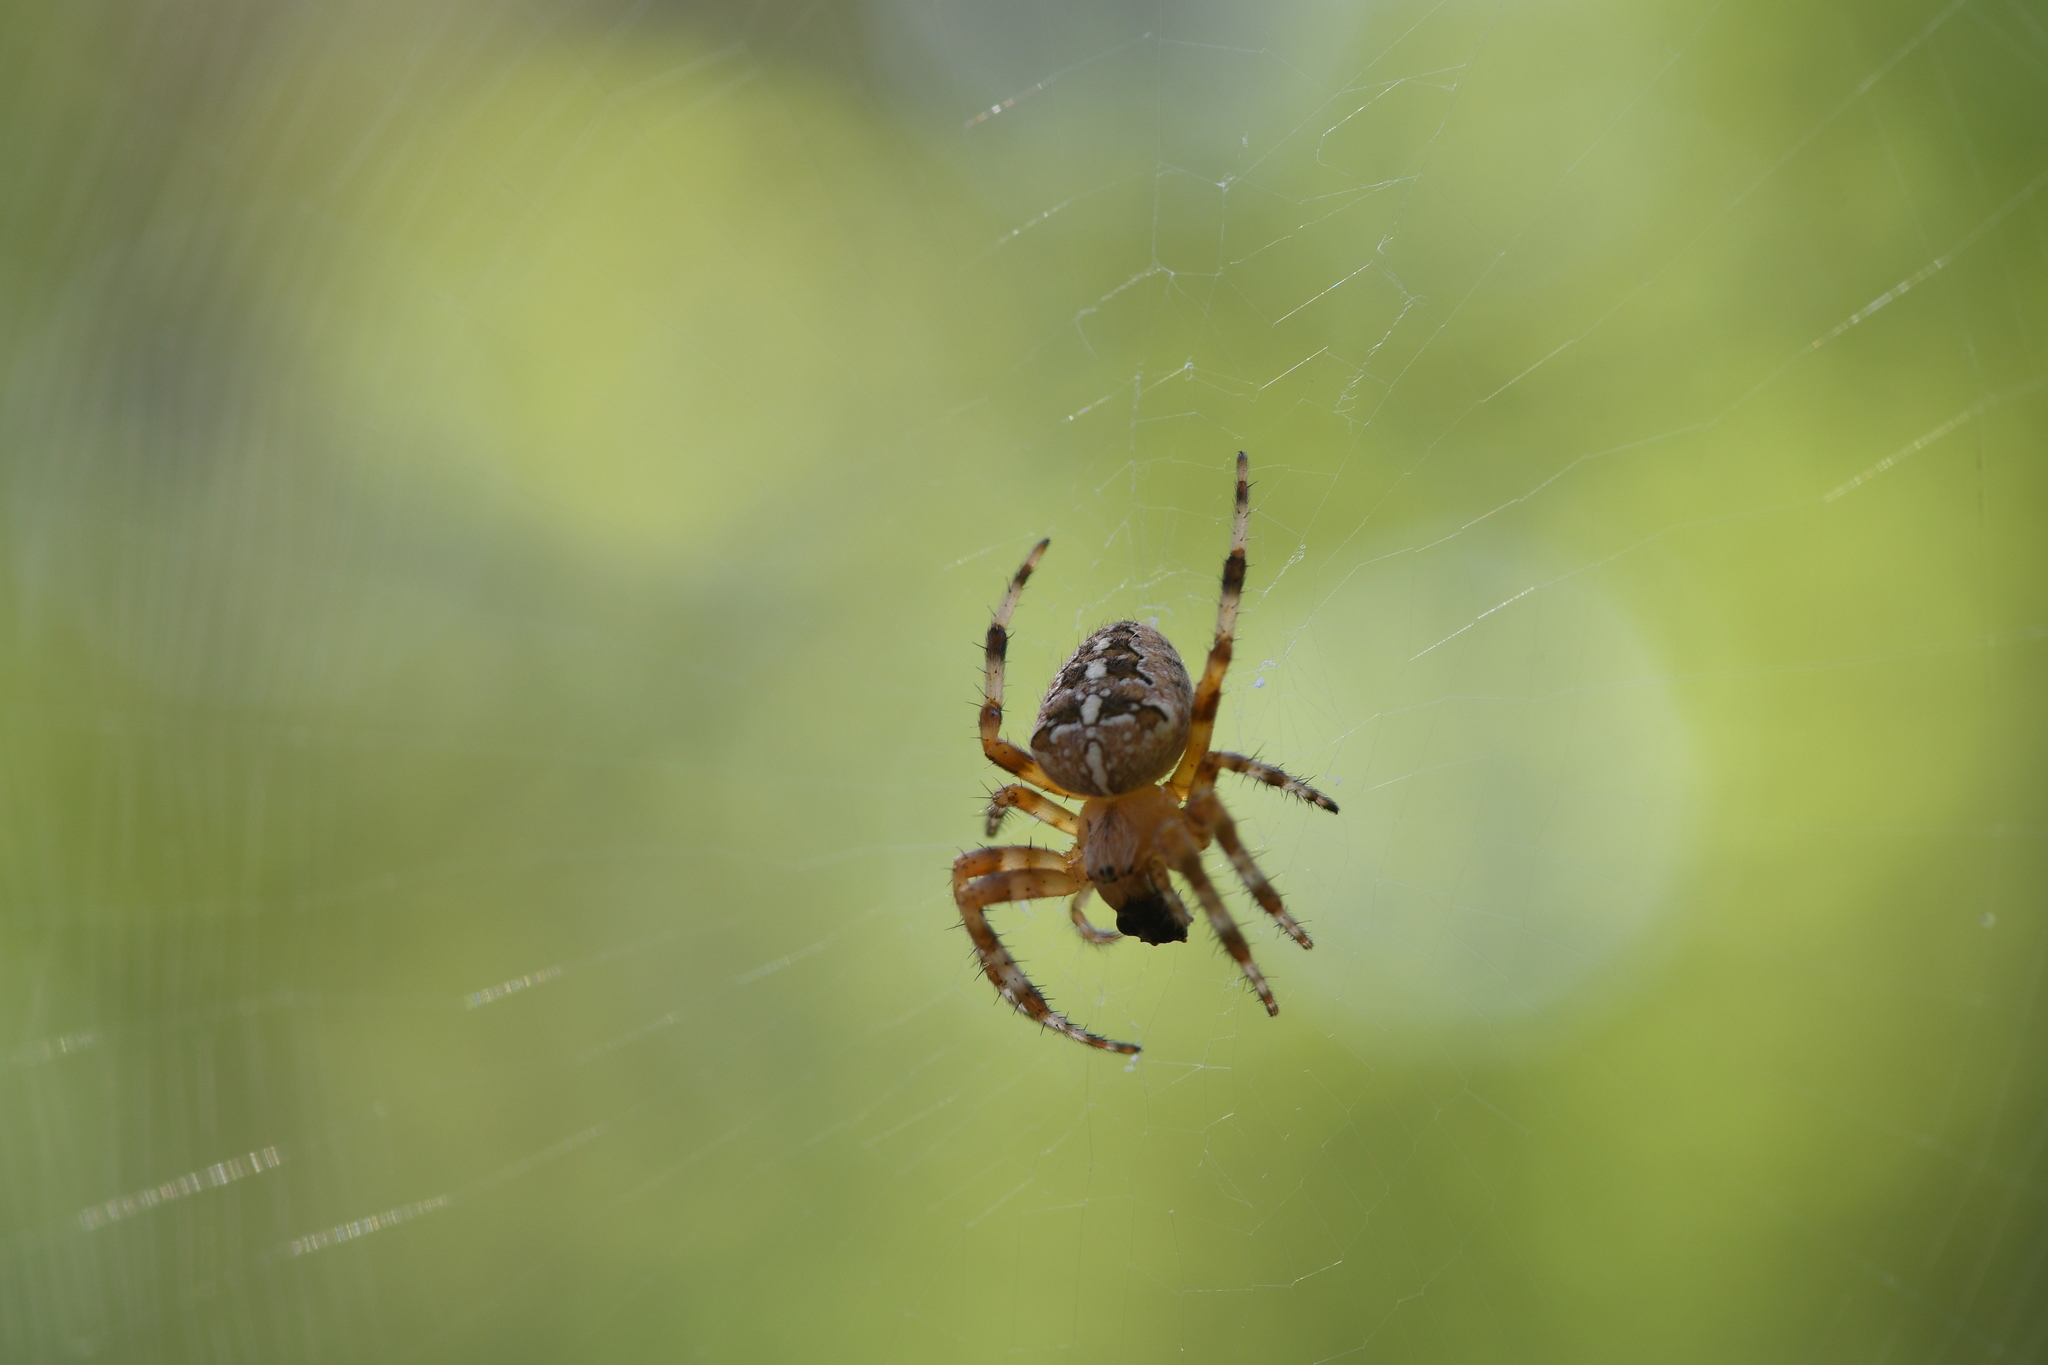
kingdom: Animalia
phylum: Arthropoda
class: Arachnida
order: Araneae
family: Araneidae
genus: Araneus
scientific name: Araneus diadematus
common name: Cross orbweaver
